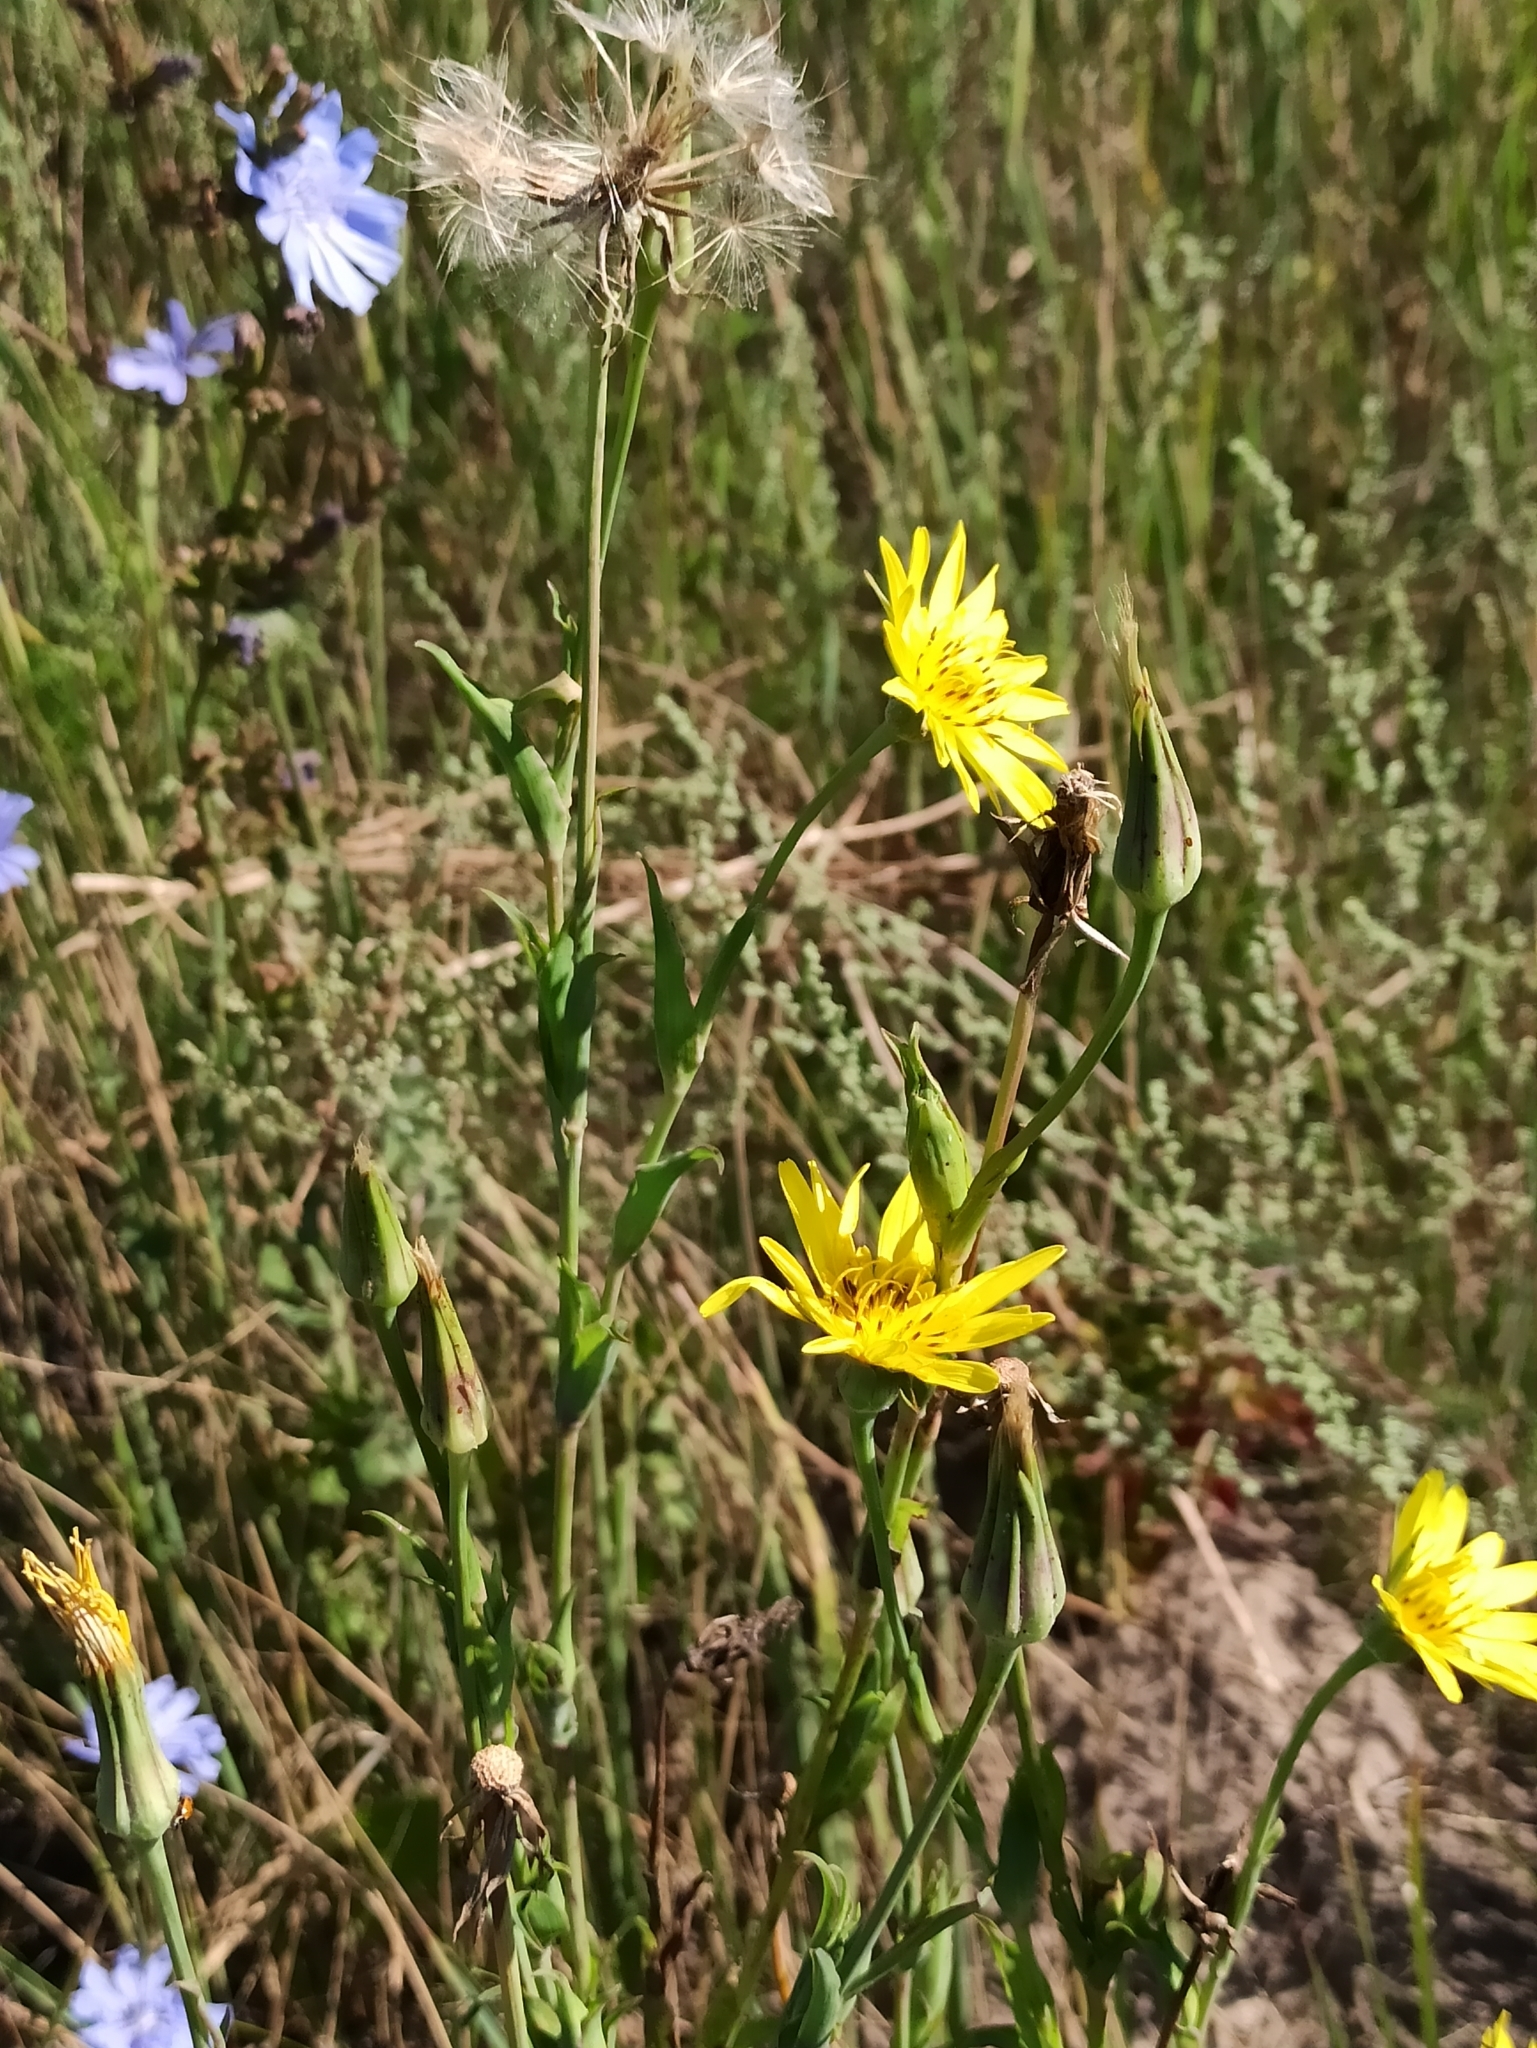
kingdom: Plantae
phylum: Tracheophyta
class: Magnoliopsida
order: Asterales
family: Asteraceae
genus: Tragopogon
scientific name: Tragopogon pratensis
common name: Goat's-beard
